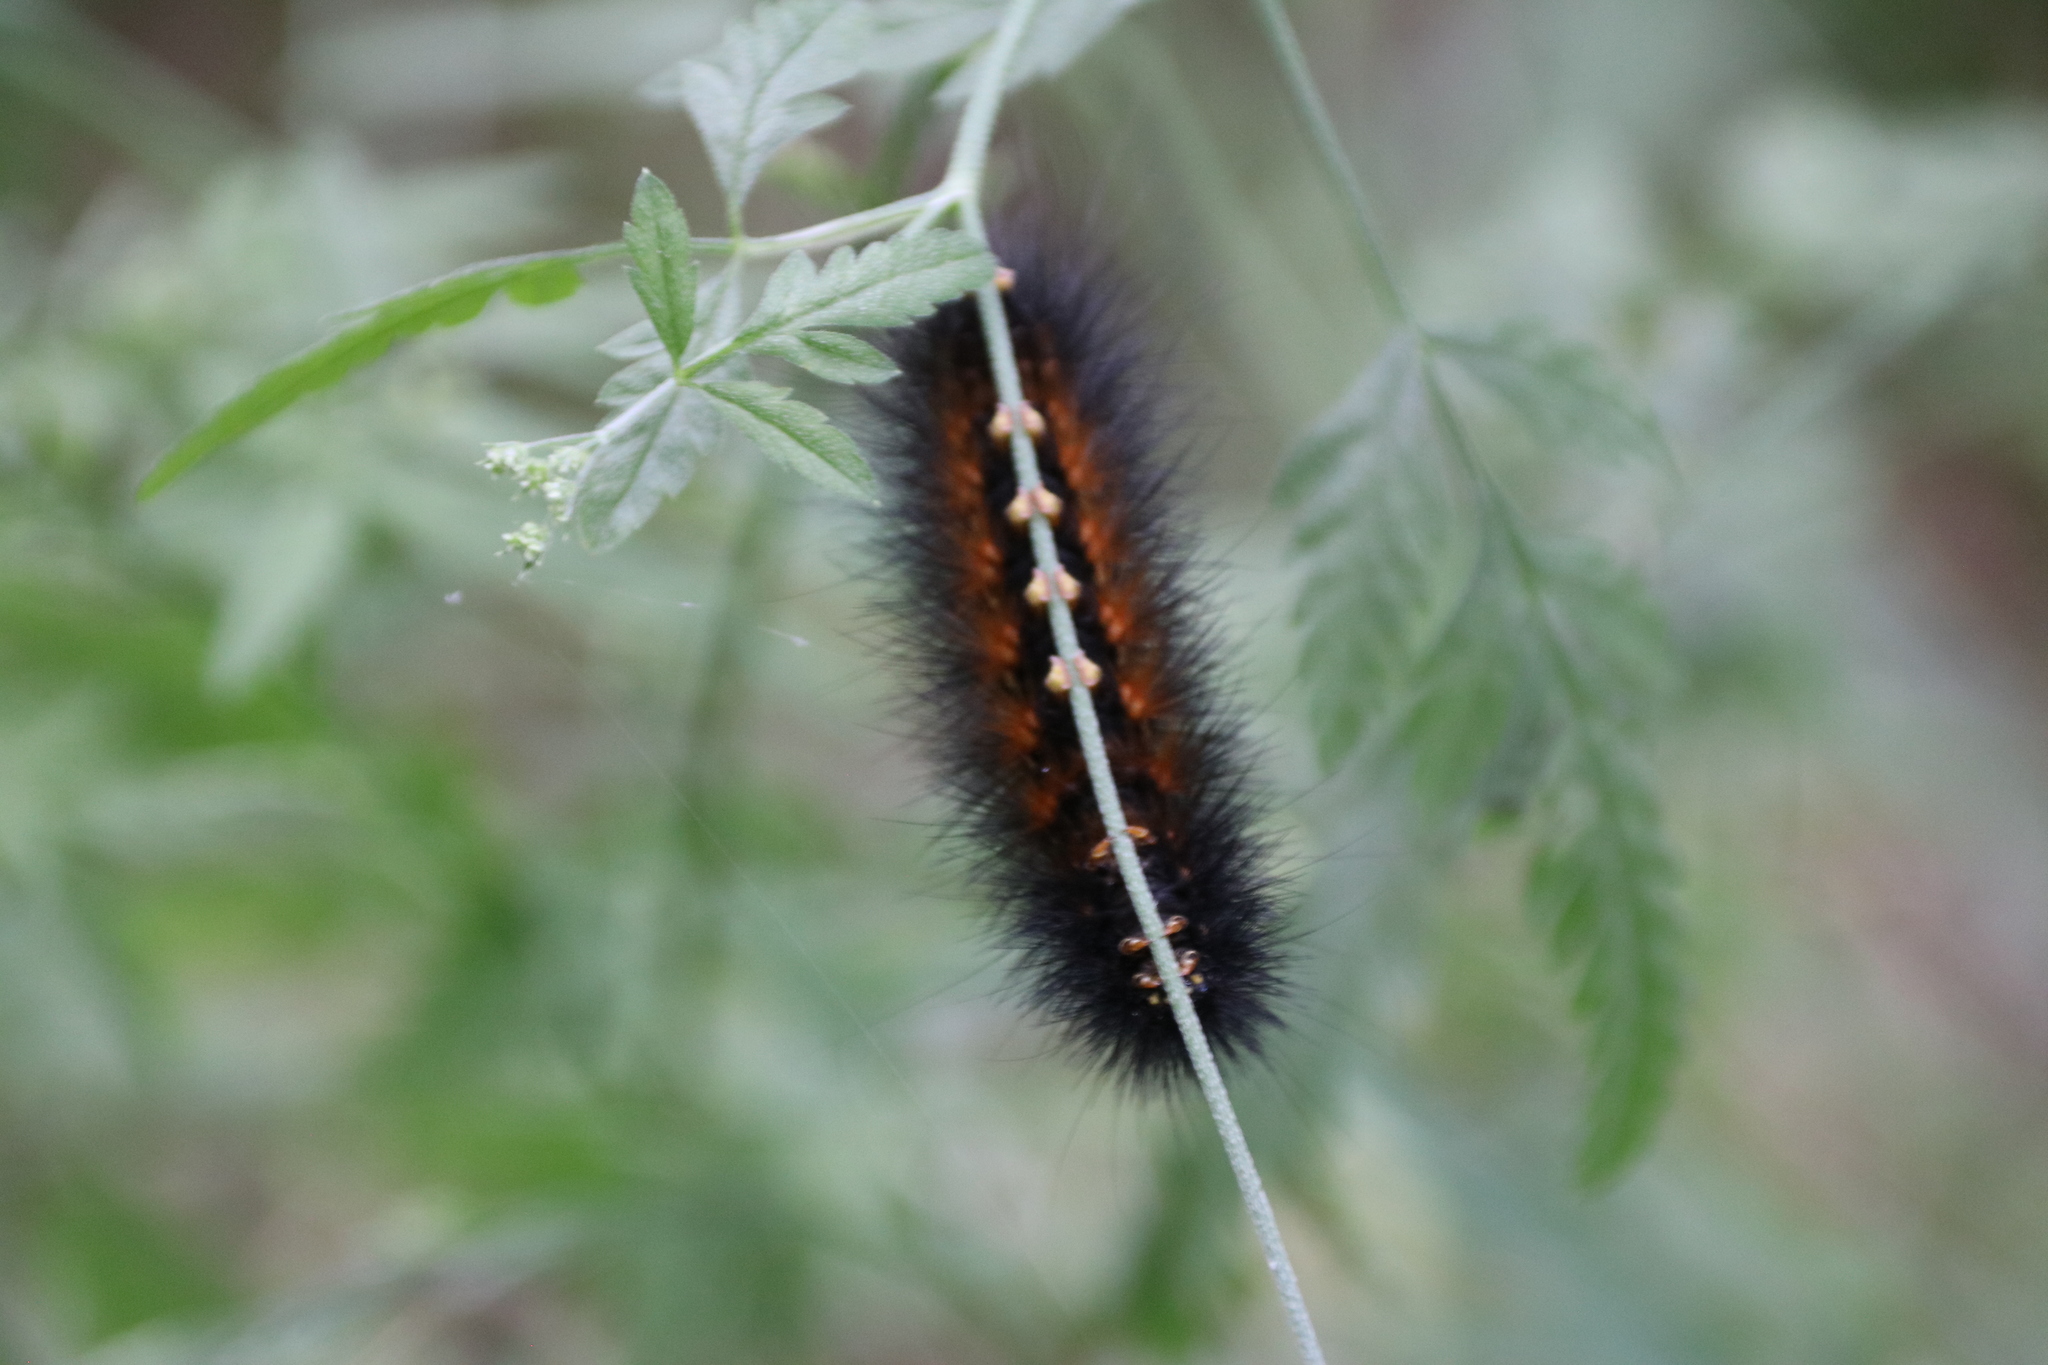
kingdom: Animalia
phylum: Arthropoda
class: Insecta
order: Lepidoptera
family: Erebidae
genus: Estigmene
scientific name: Estigmene acrea
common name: Salt marsh moth
